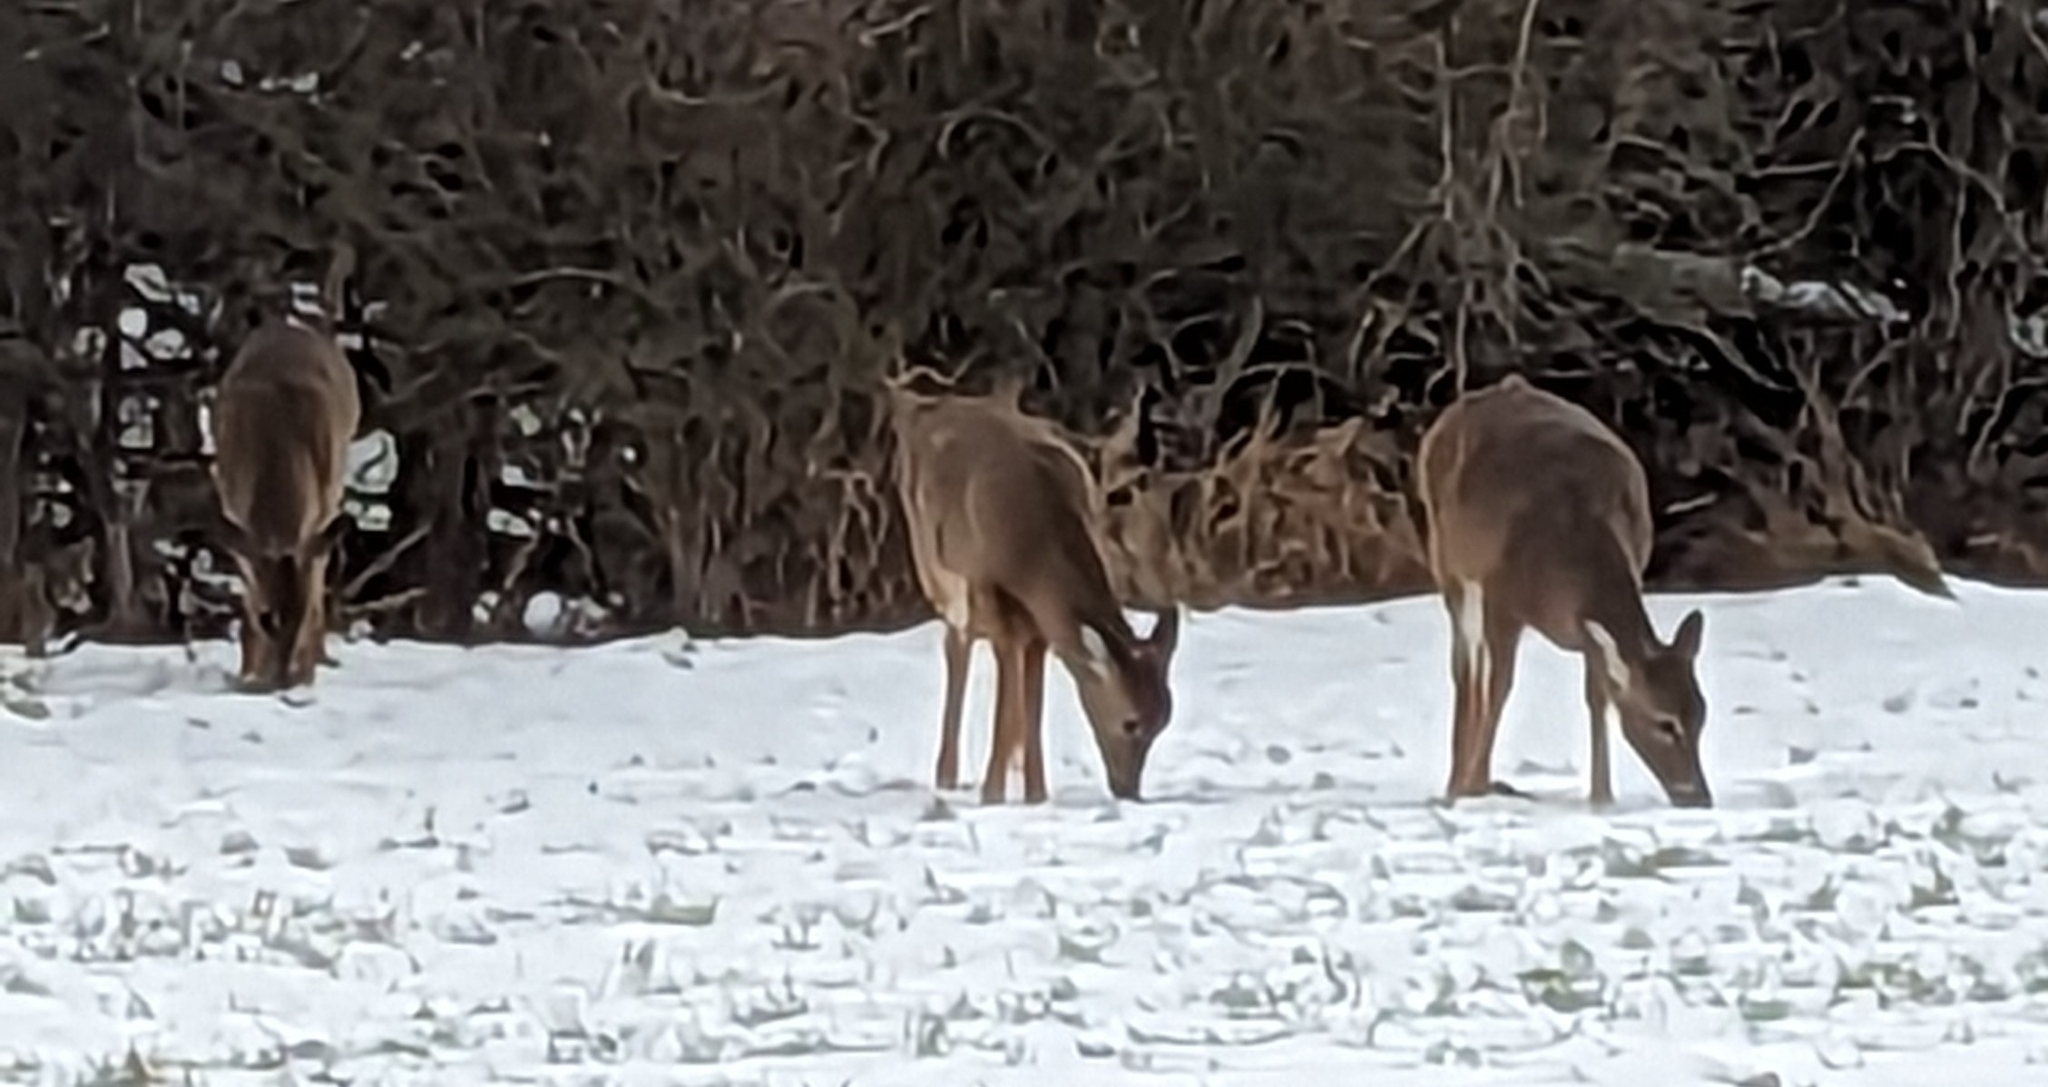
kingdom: Animalia
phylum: Chordata
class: Mammalia
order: Artiodactyla
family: Cervidae
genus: Odocoileus
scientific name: Odocoileus virginianus
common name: White-tailed deer
